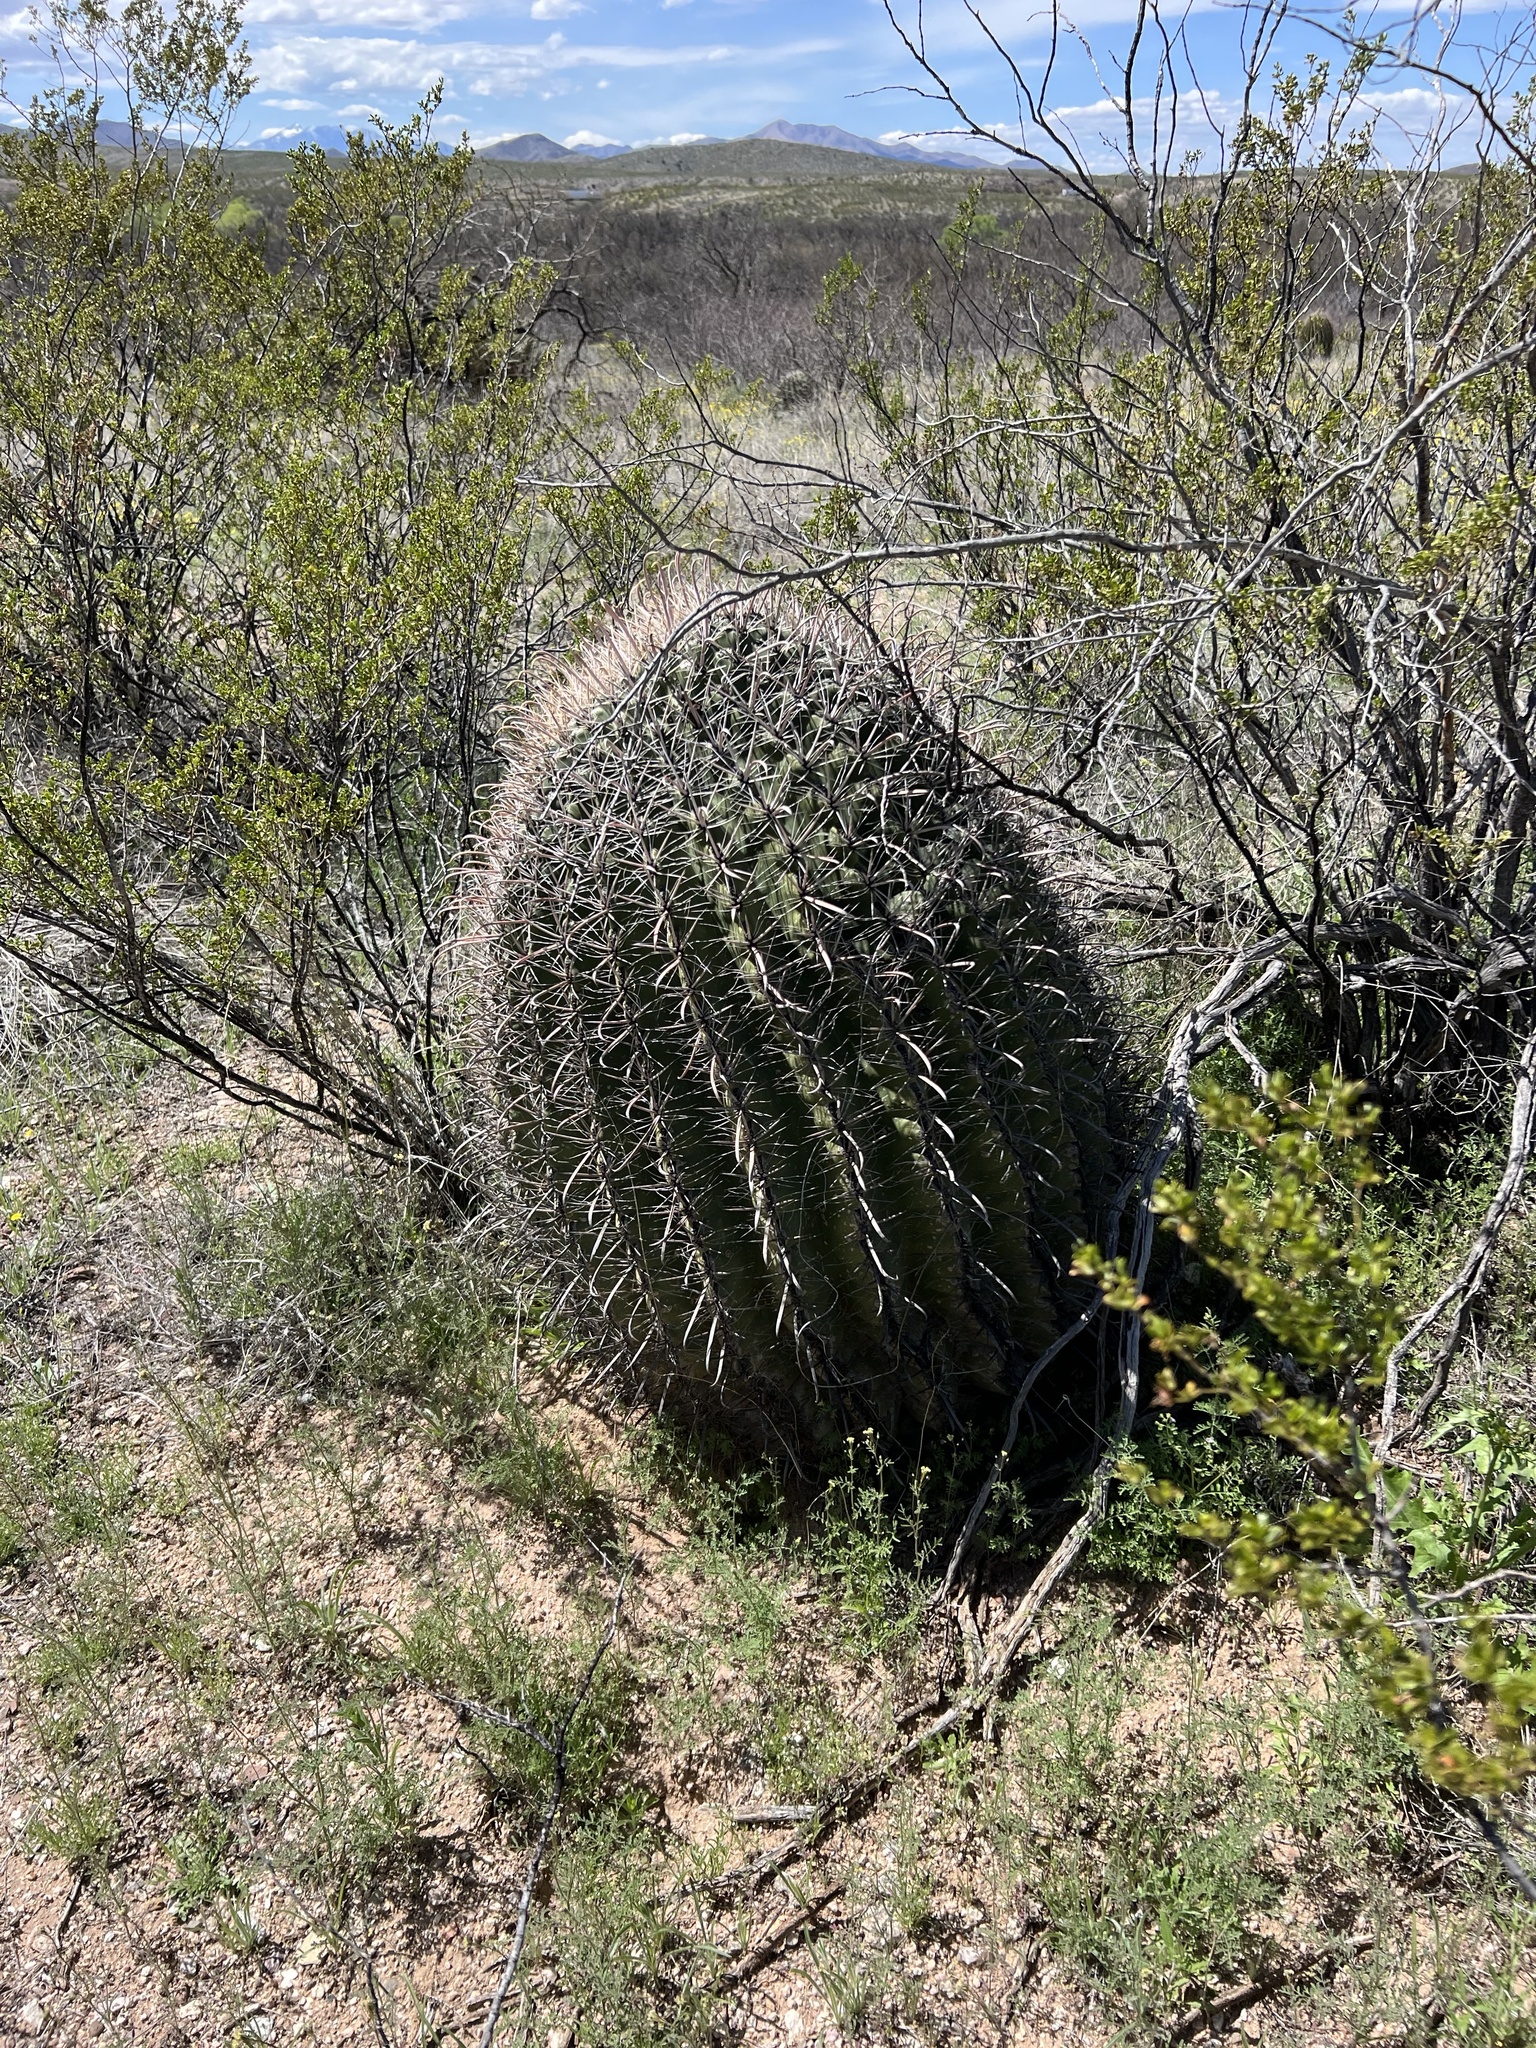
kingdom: Plantae
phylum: Tracheophyta
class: Magnoliopsida
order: Caryophyllales
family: Cactaceae
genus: Ferocactus
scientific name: Ferocactus wislizeni
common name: Candy barrel cactus
